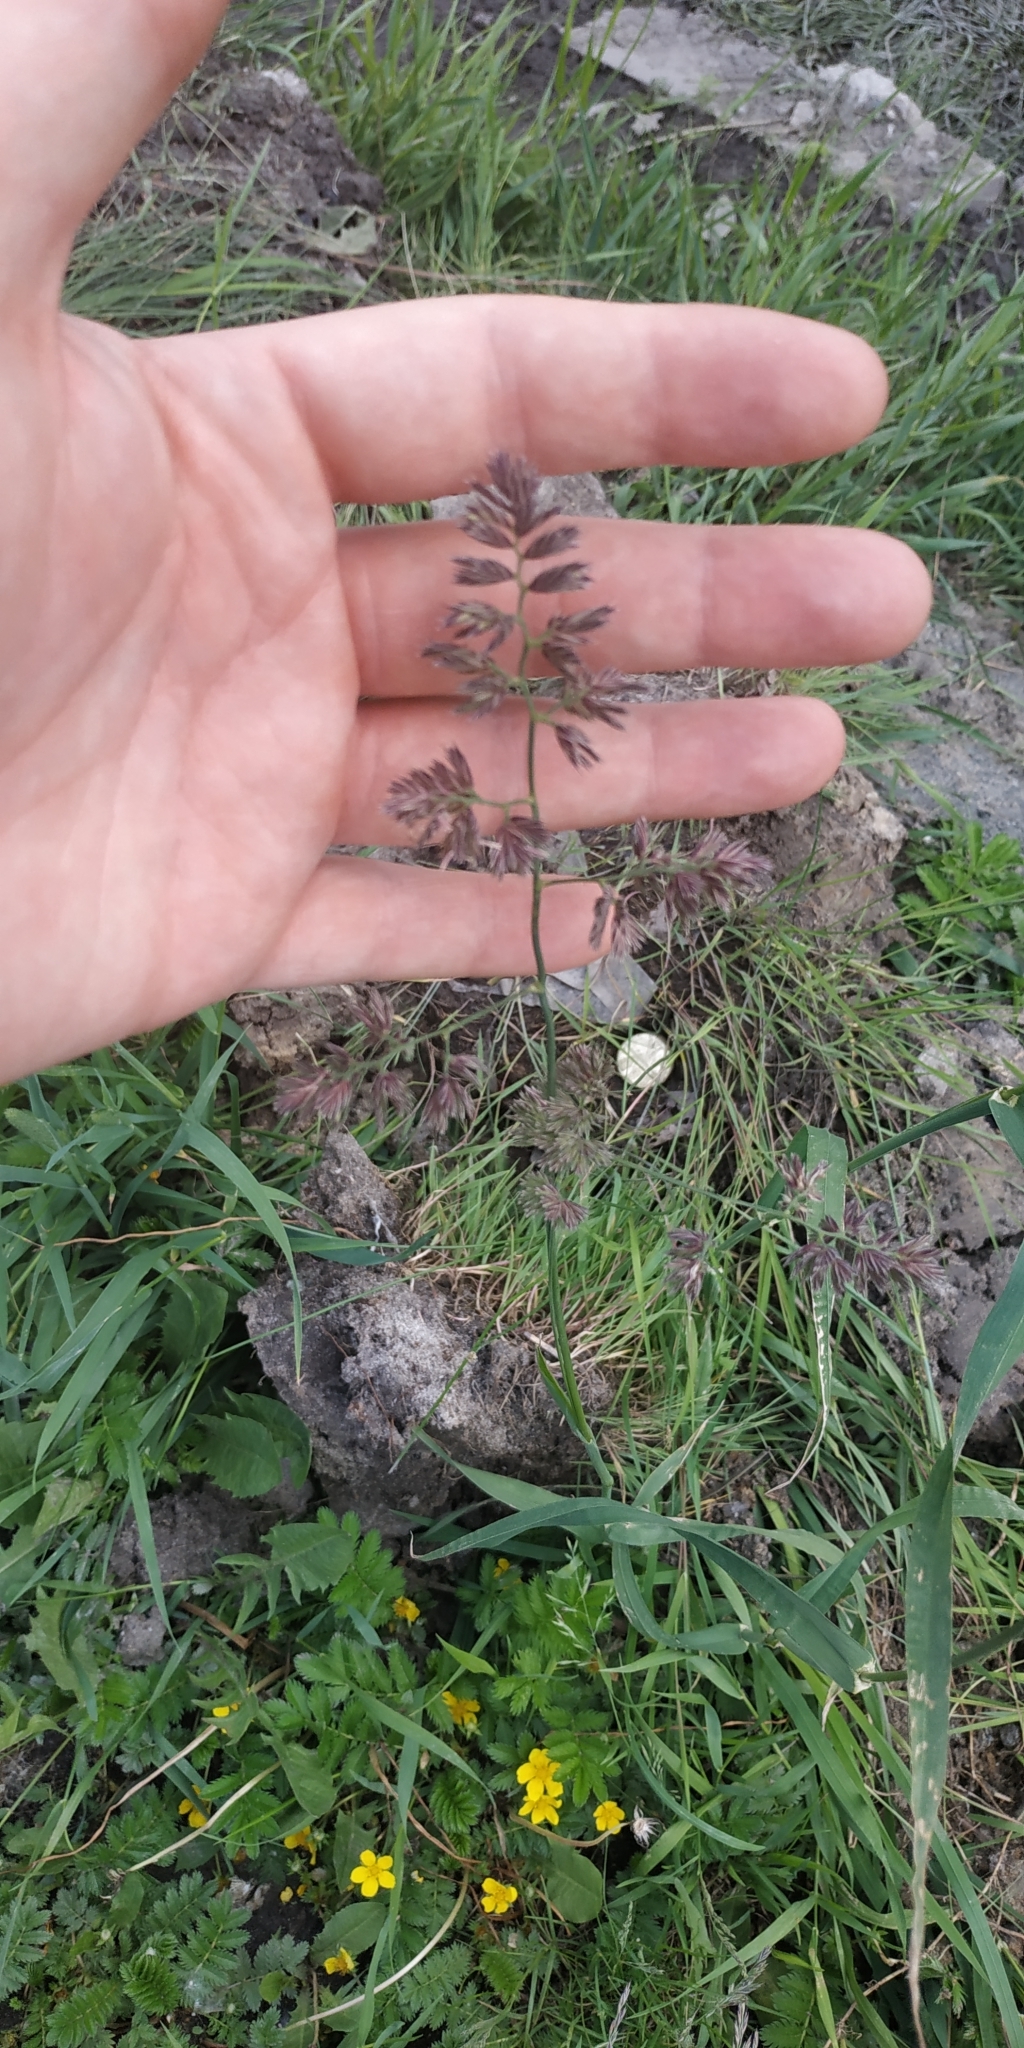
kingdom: Plantae
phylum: Tracheophyta
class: Liliopsida
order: Poales
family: Poaceae
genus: Dactylis
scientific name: Dactylis glomerata
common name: Orchardgrass
